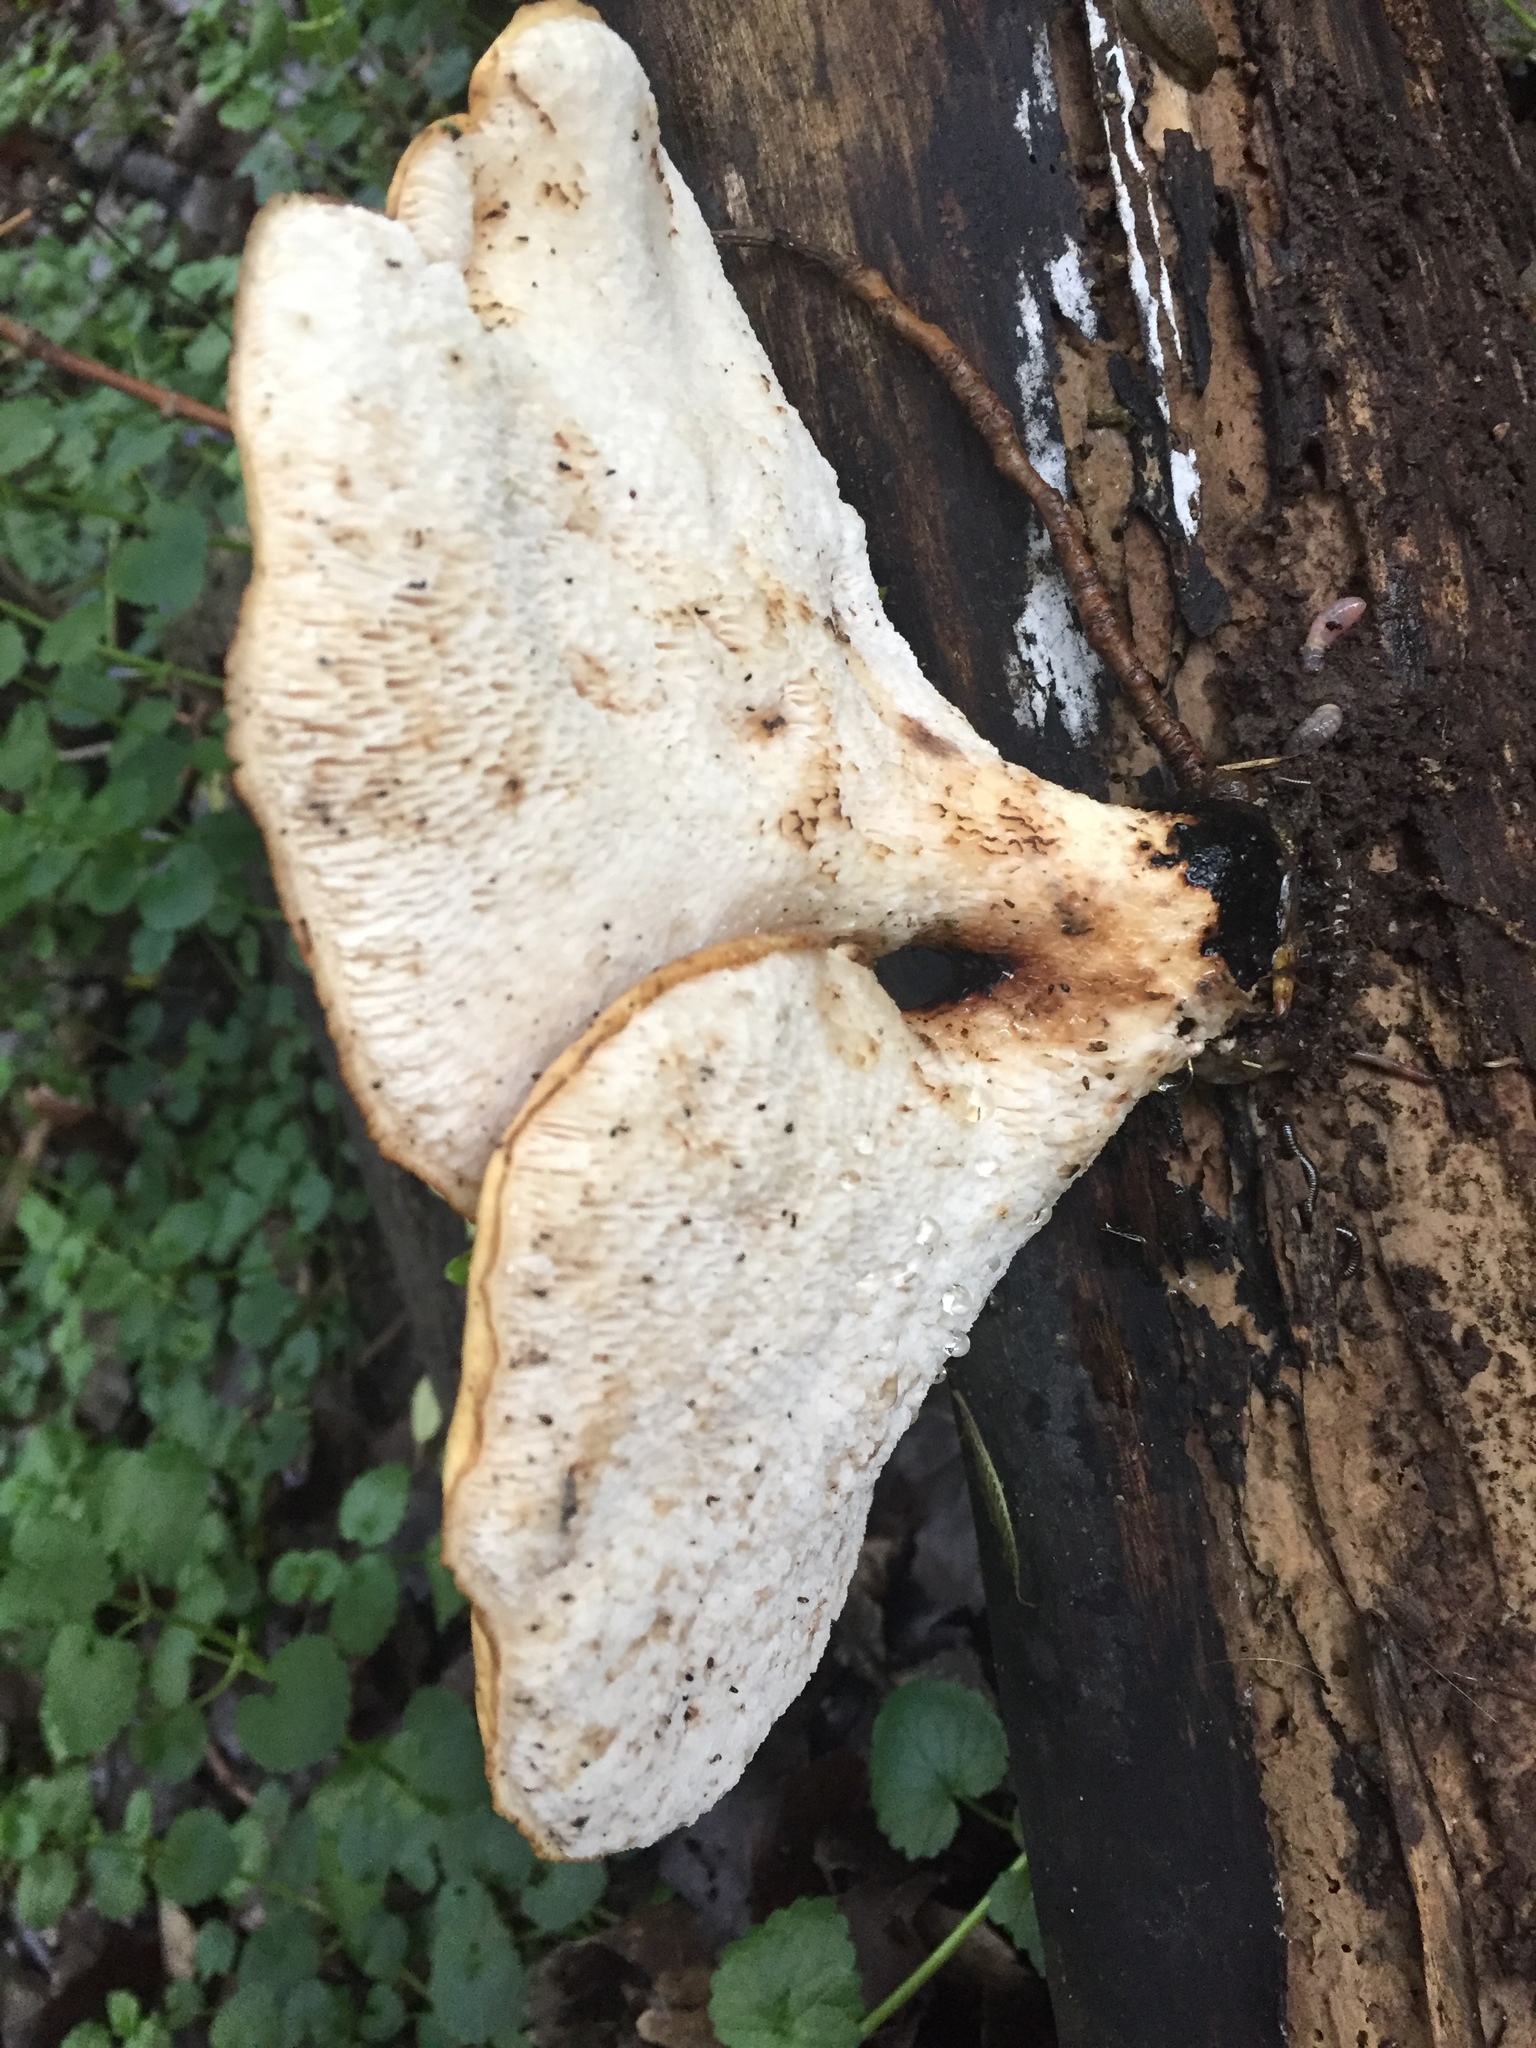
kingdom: Fungi
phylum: Basidiomycota
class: Agaricomycetes
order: Polyporales
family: Polyporaceae
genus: Cerioporus
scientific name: Cerioporus squamosus
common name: Dryad's saddle
